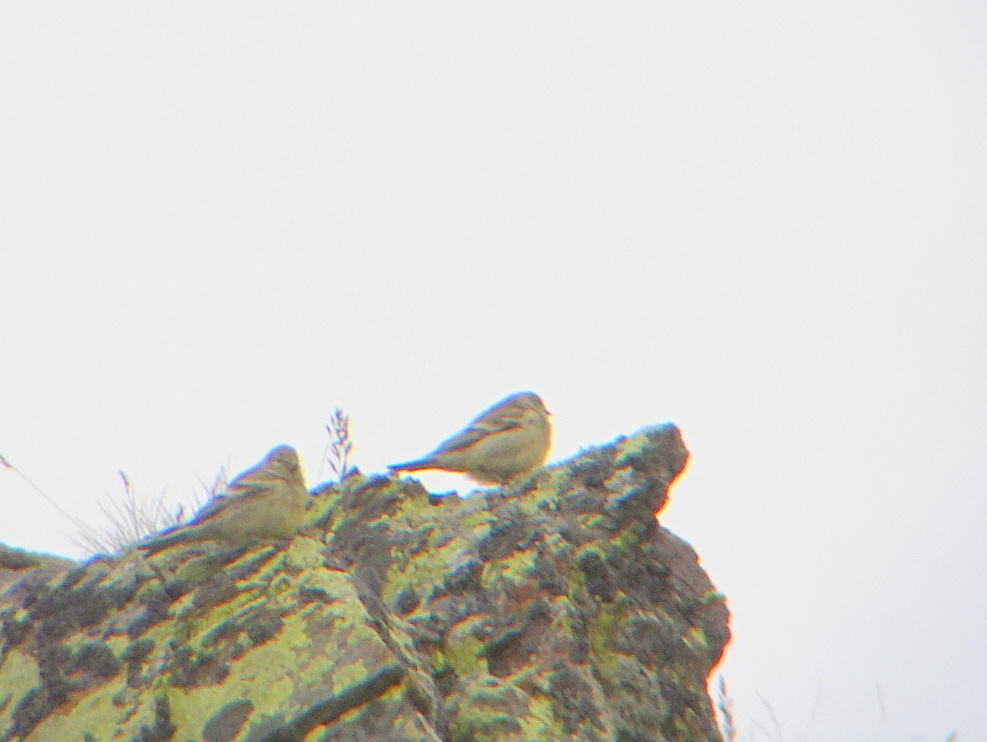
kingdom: Animalia
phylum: Chordata
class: Aves
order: Passeriformes
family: Fringillidae
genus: Carduelis
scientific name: Carduelis citrinella
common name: Citril finch
